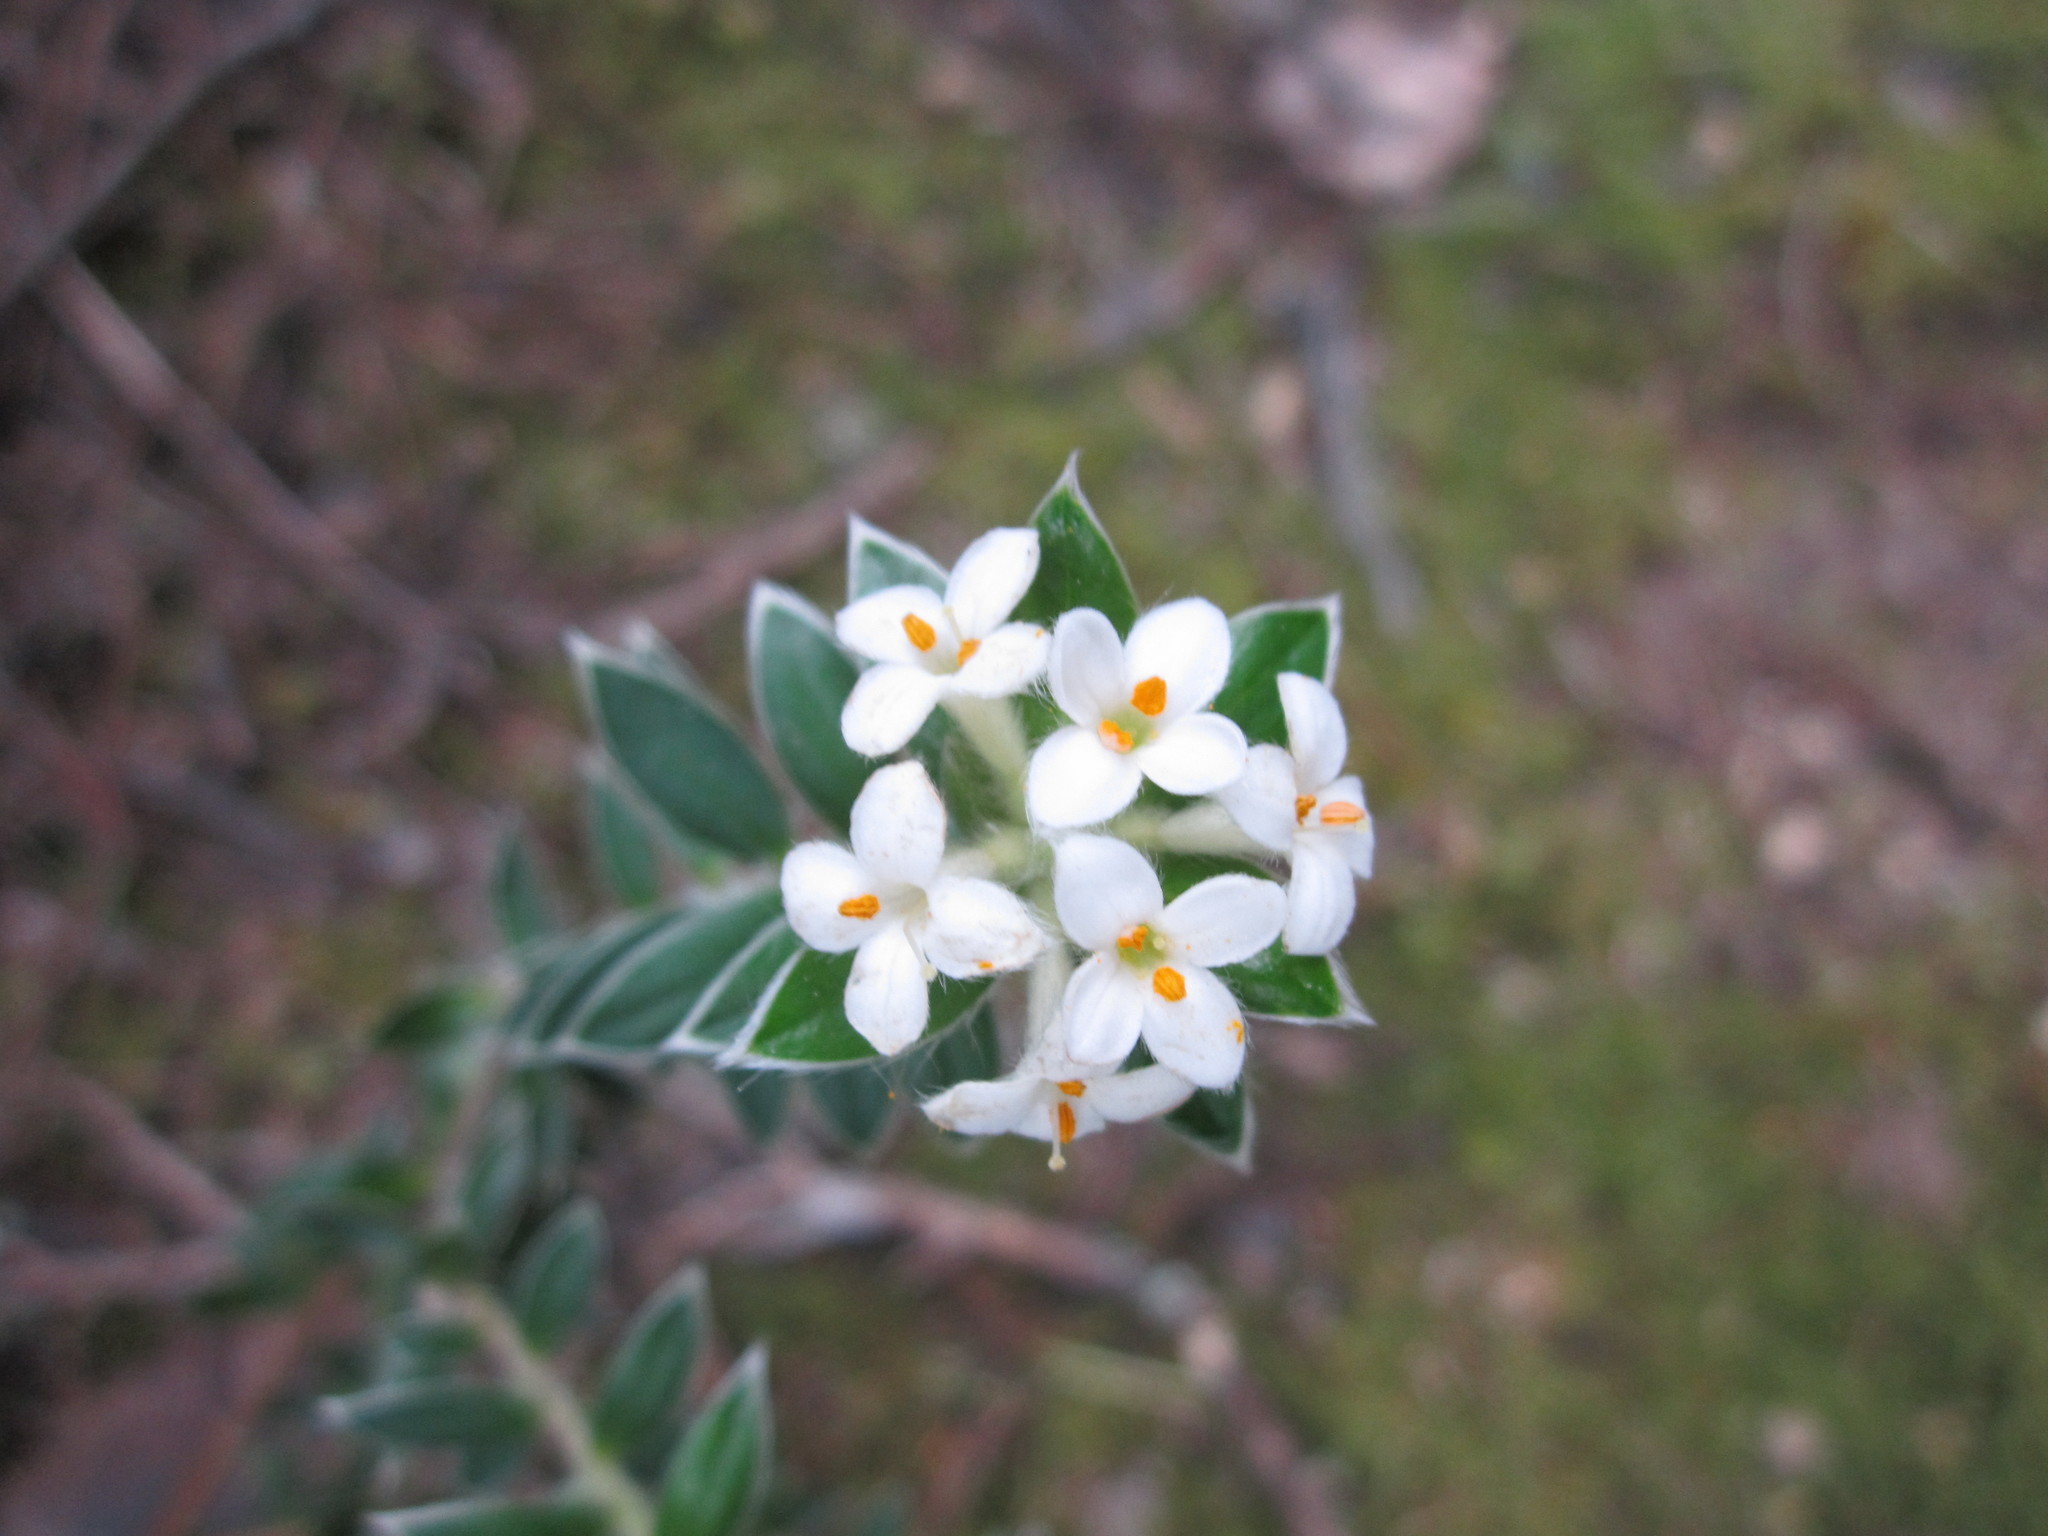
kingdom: Plantae
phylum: Tracheophyta
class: Magnoliopsida
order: Malvales
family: Thymelaeaceae
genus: Pimelea
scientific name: Pimelea pseudolyallii
